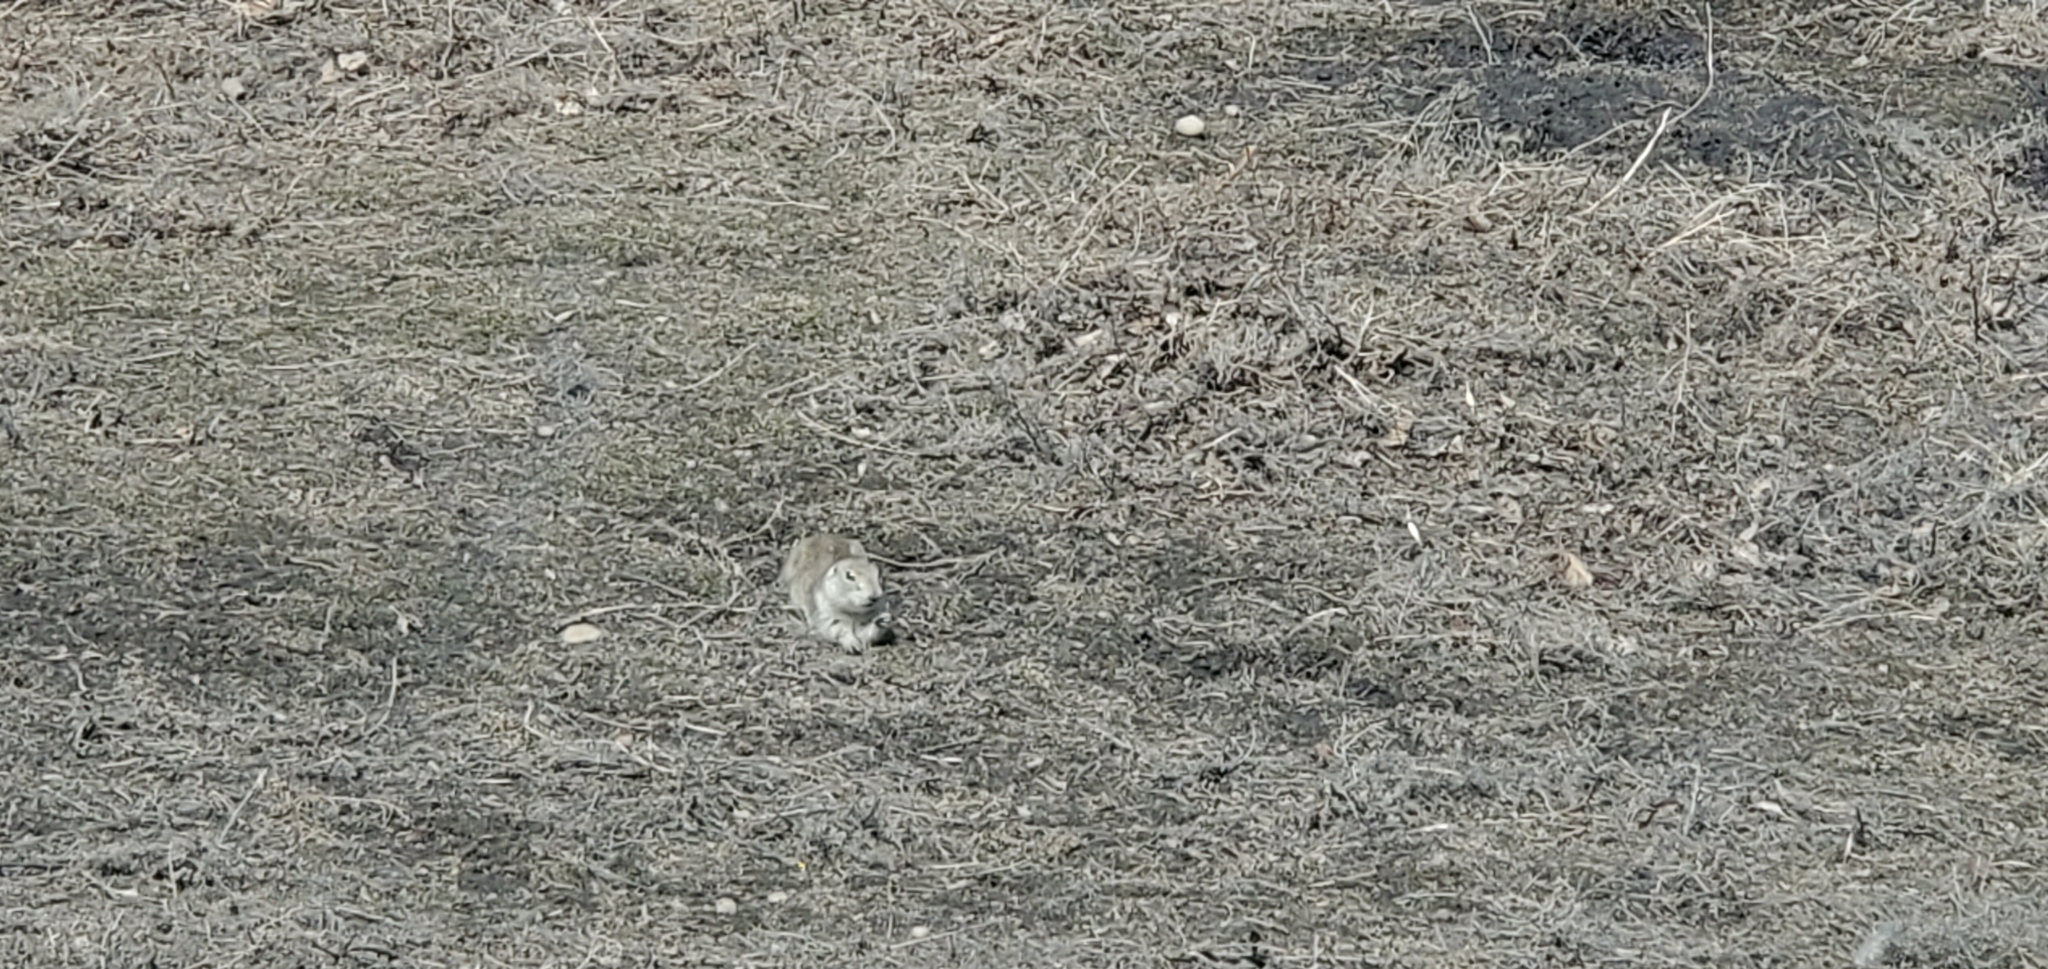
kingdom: Animalia
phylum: Chordata
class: Mammalia
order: Rodentia
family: Sciuridae
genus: Urocitellus
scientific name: Urocitellus richardsonii
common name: Richardson's ground squirrel
